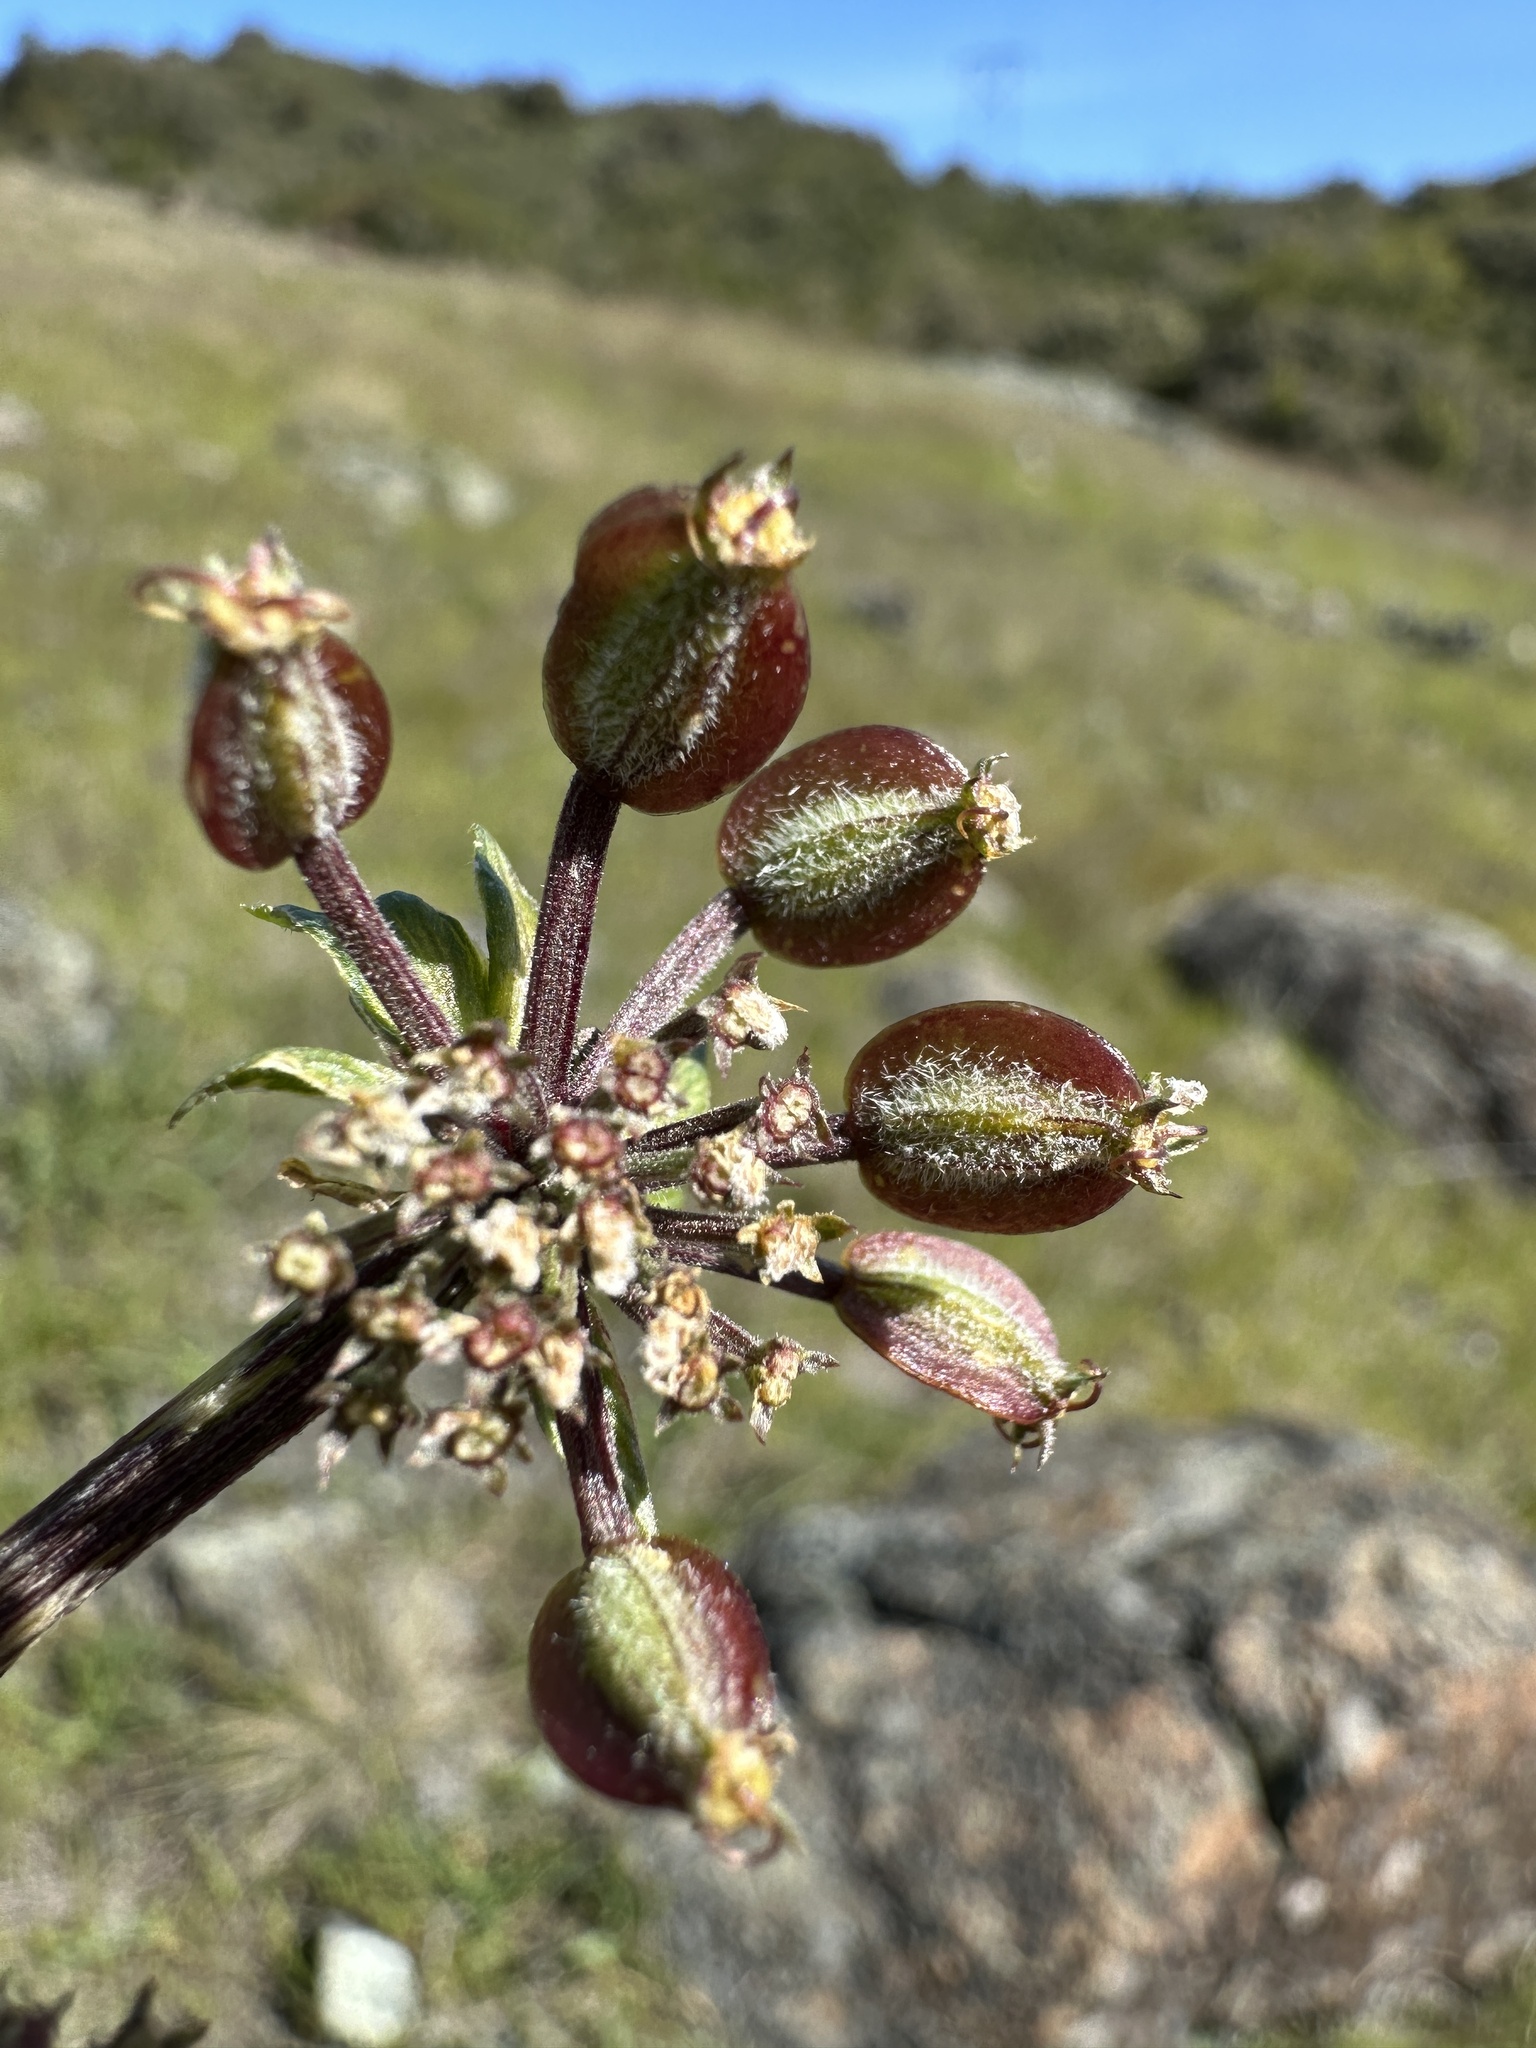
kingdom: Plantae
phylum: Tracheophyta
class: Magnoliopsida
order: Apiales
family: Apiaceae
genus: Lomatium
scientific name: Lomatium dasycarpum
